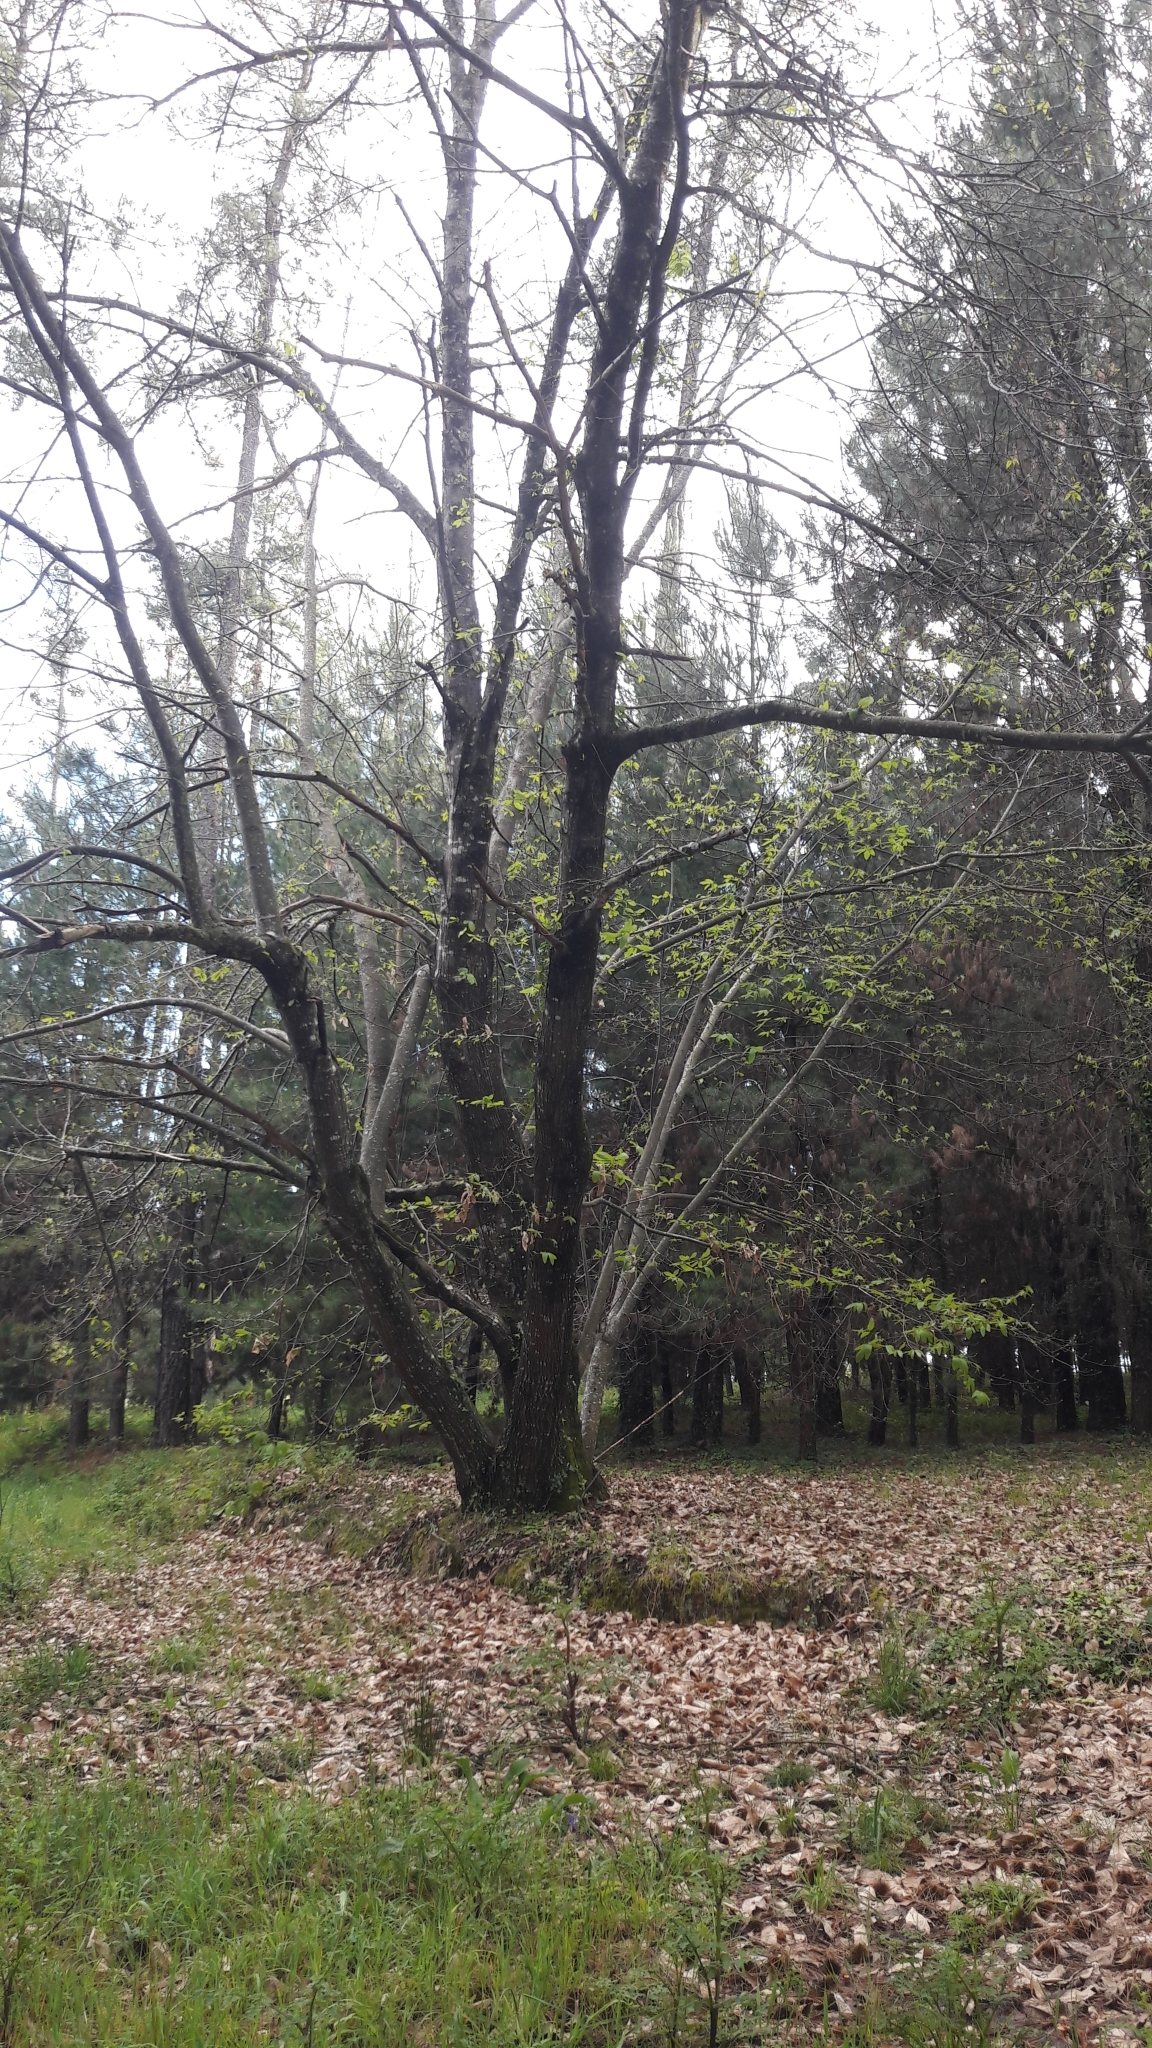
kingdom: Plantae
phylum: Tracheophyta
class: Magnoliopsida
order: Fagales
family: Fagaceae
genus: Castanea
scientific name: Castanea sativa
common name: Sweet chestnut
